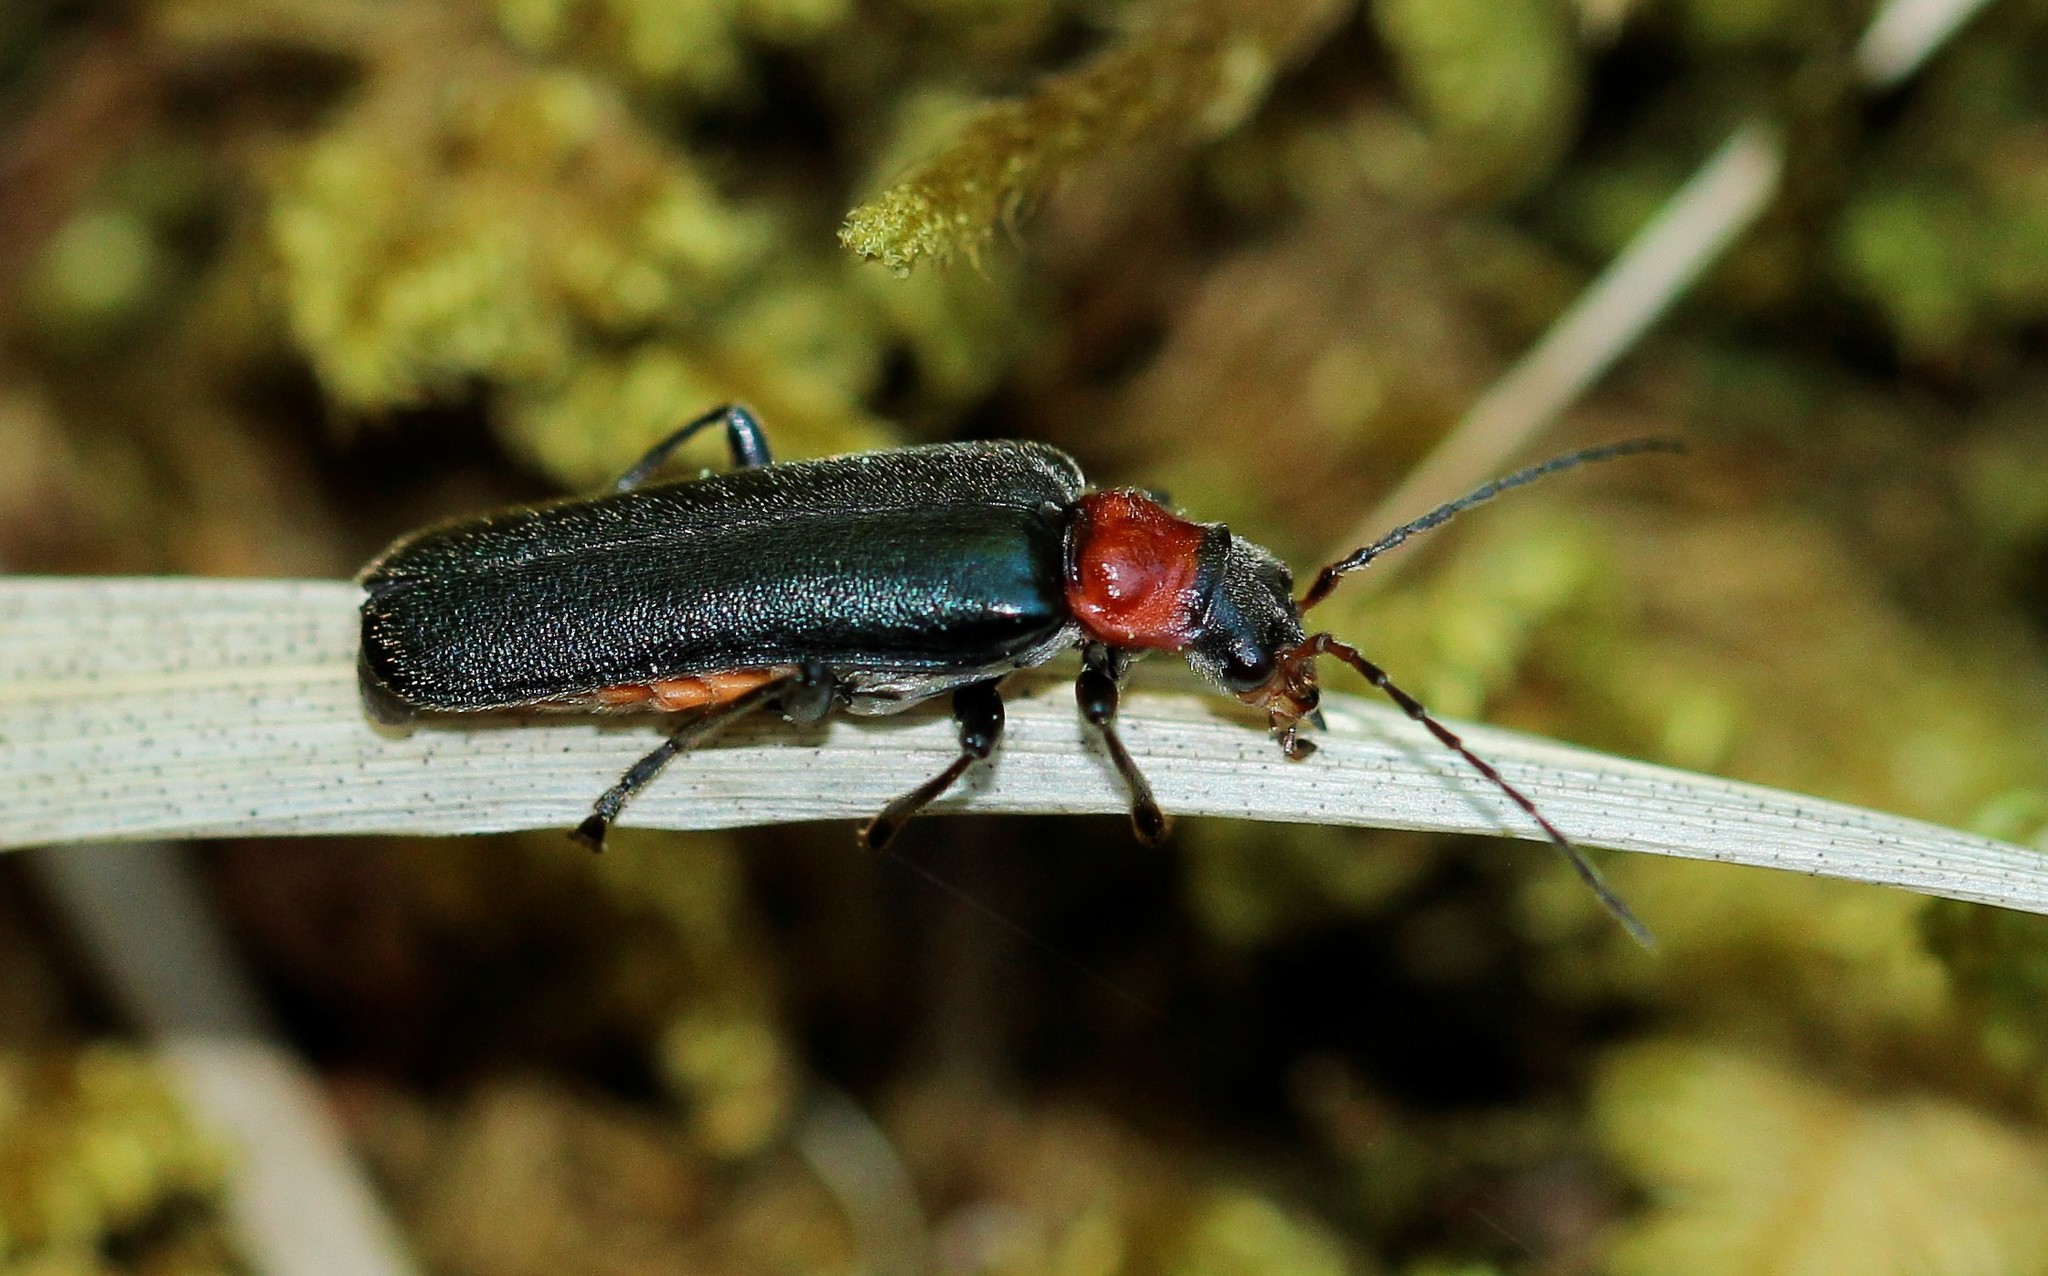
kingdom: Animalia
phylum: Arthropoda
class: Insecta
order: Coleoptera
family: Cantharidae
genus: Cordicantharis
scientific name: Cordicantharis cordicollis
